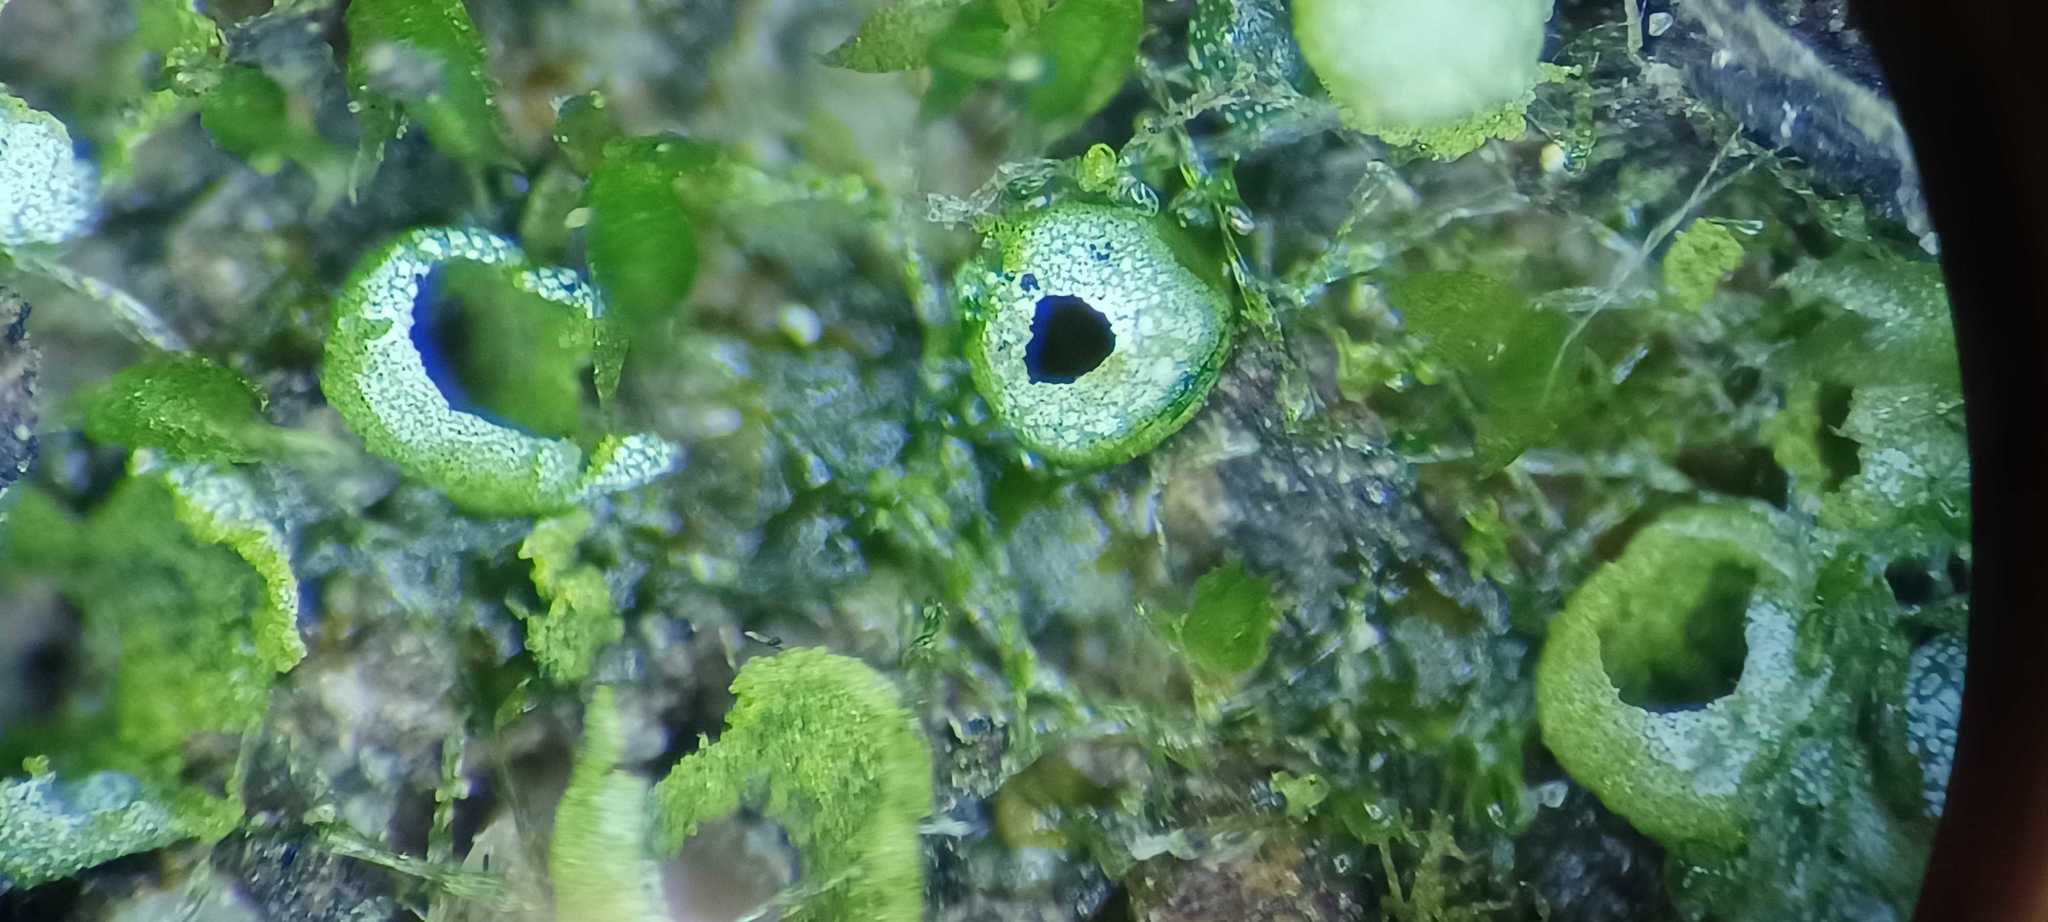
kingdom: Chromista
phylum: Ochrophyta
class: Xanthophyceae
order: Vaucheriales
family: Vaucheriaceae
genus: Vaucheria
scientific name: Vaucheria
